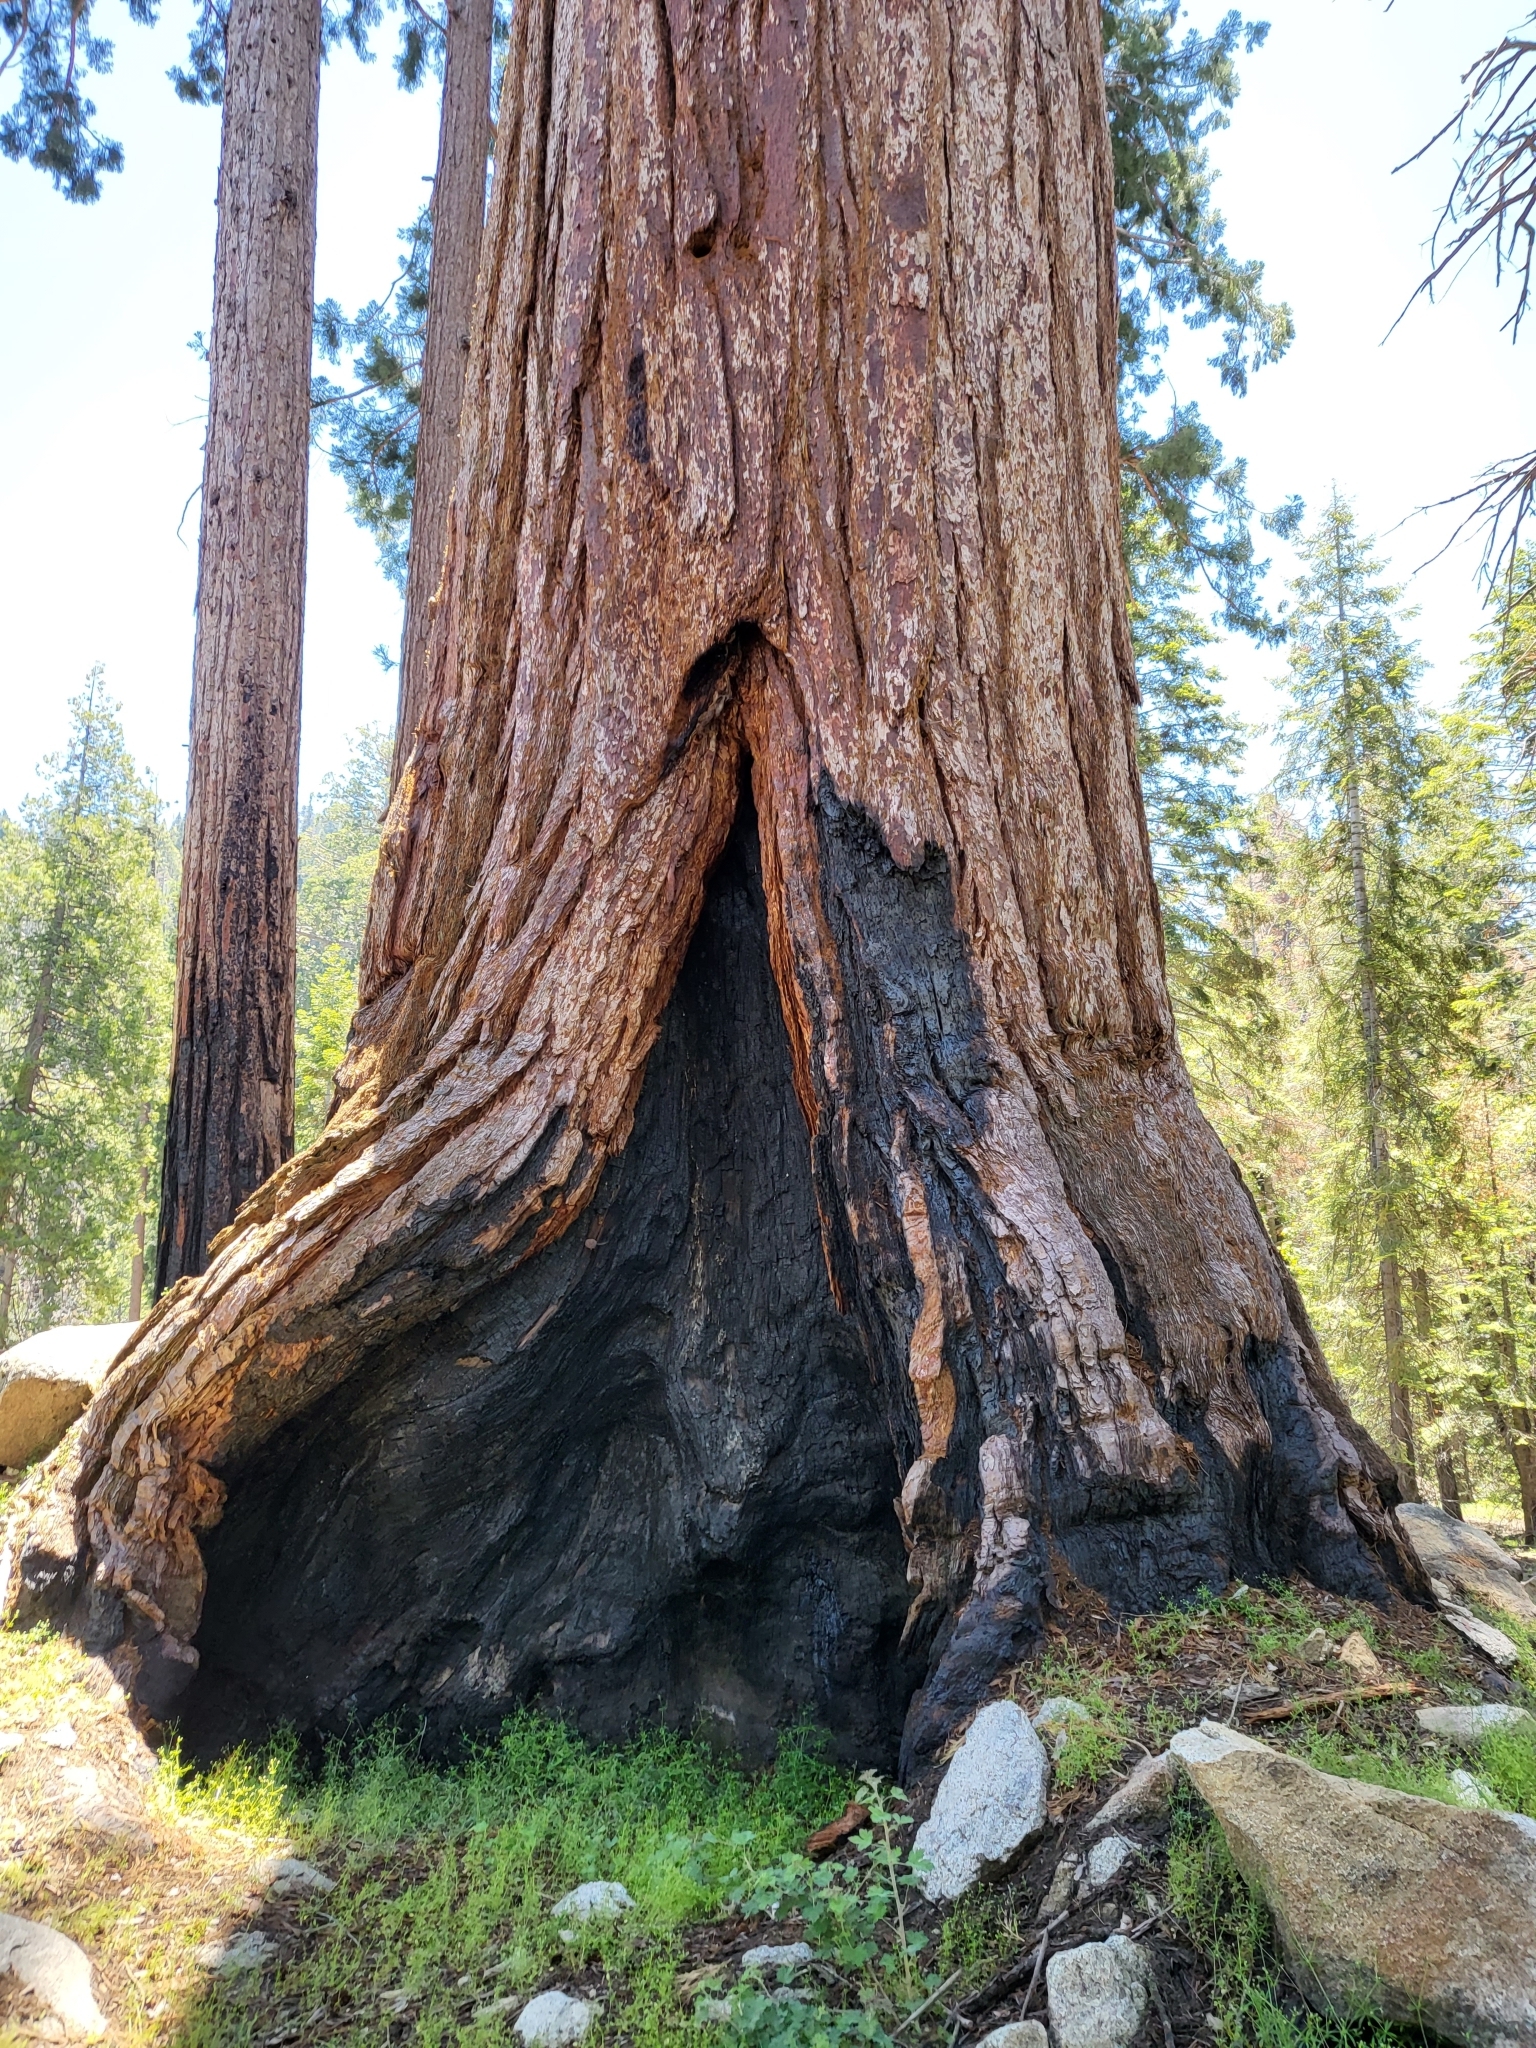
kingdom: Plantae
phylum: Tracheophyta
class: Pinopsida
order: Pinales
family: Cupressaceae
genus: Sequoiadendron
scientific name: Sequoiadendron giganteum
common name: Wellingtonia
